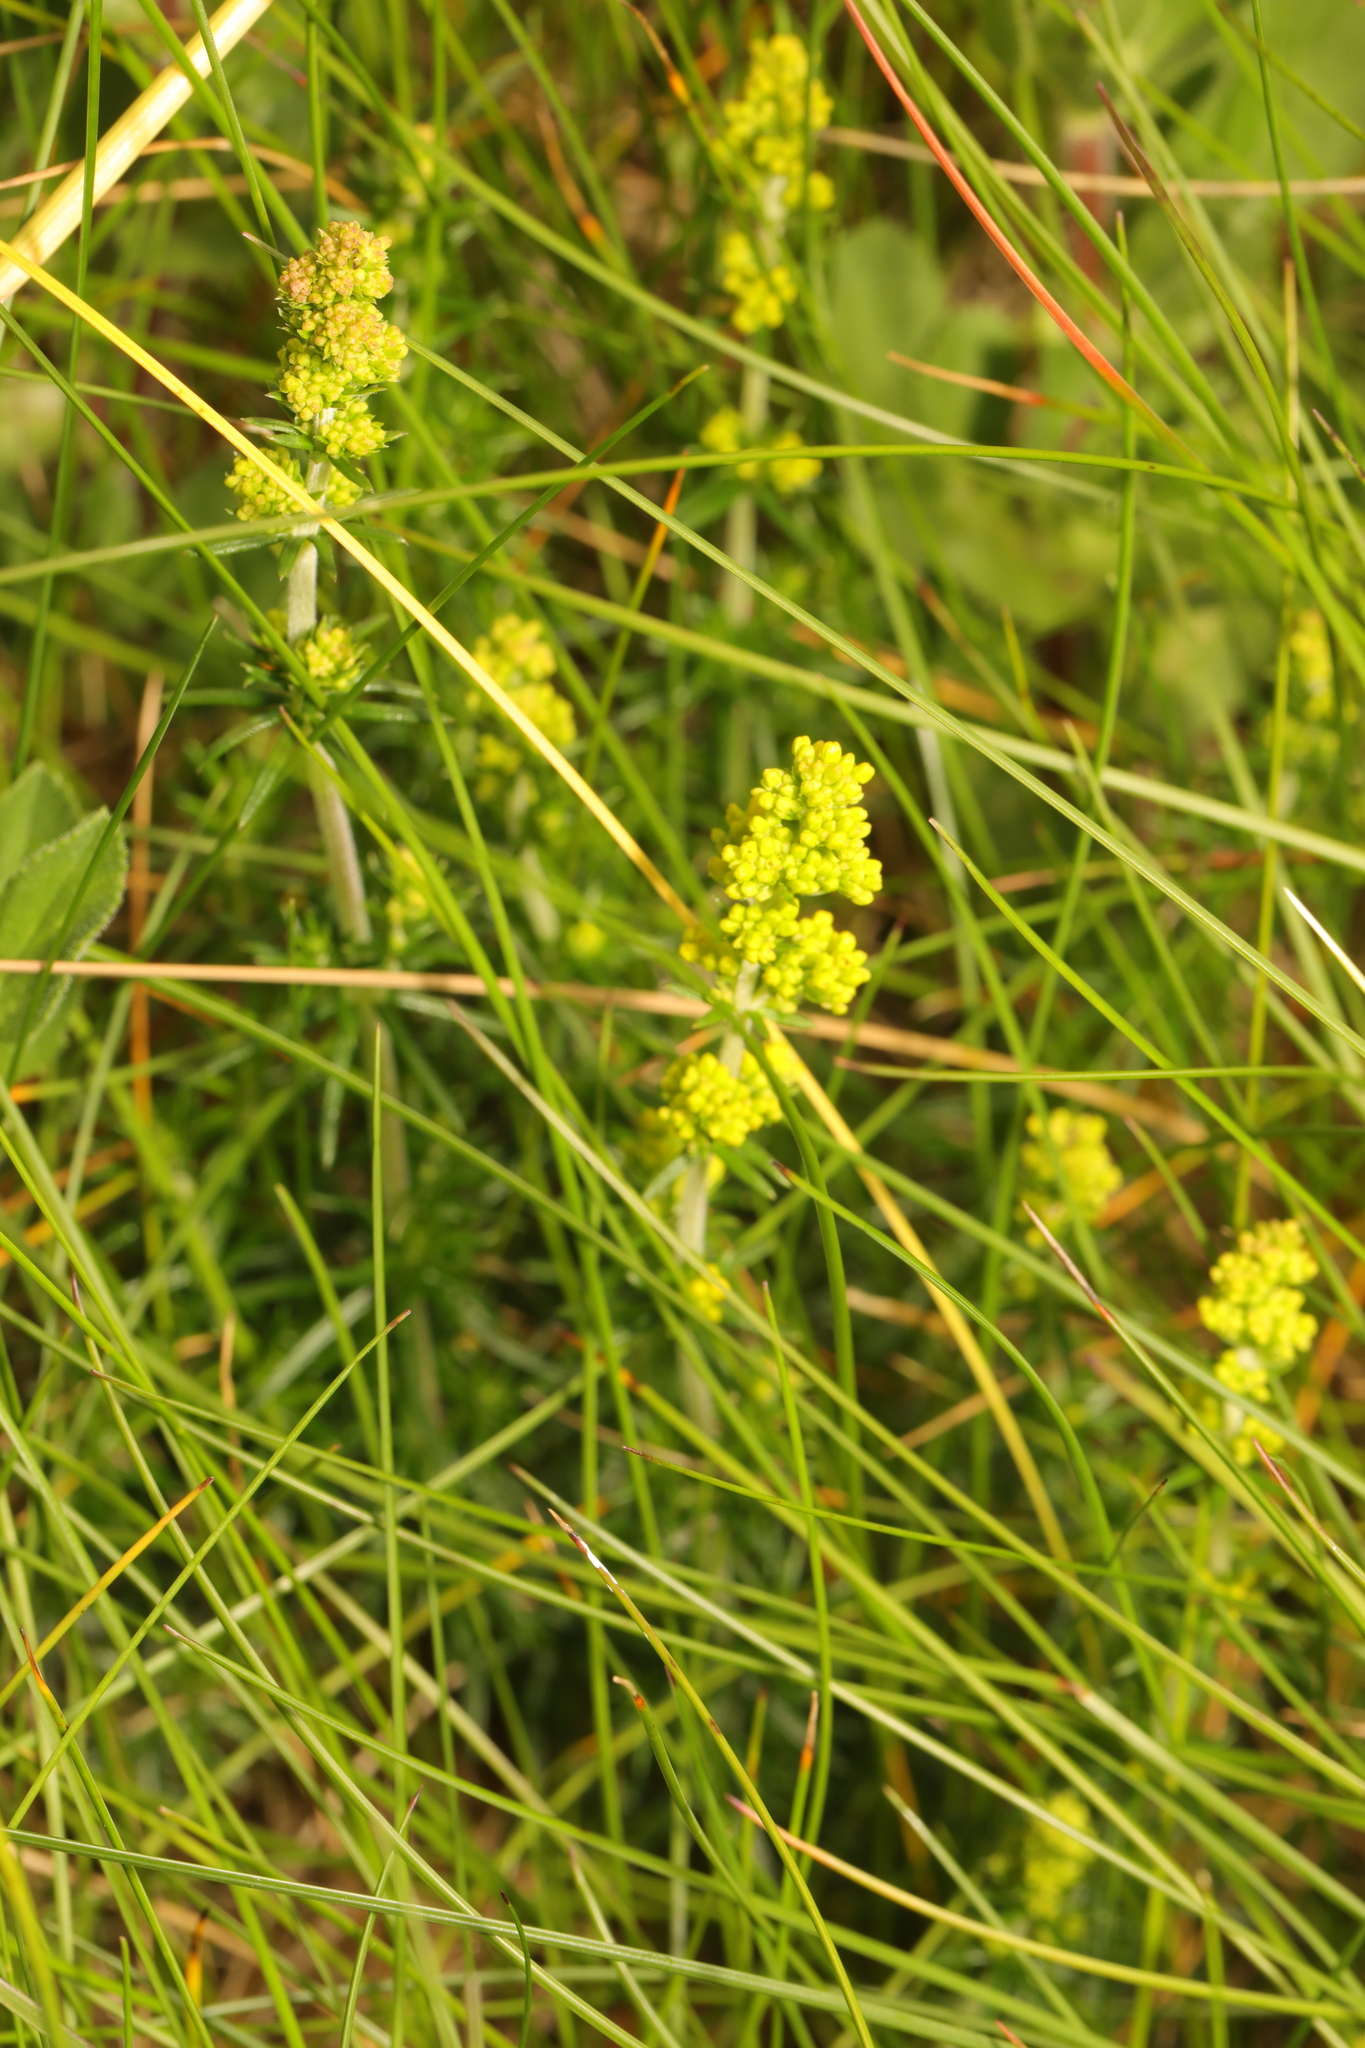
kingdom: Plantae
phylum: Tracheophyta
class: Magnoliopsida
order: Gentianales
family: Rubiaceae
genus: Galium
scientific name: Galium verum
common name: Lady's bedstraw
